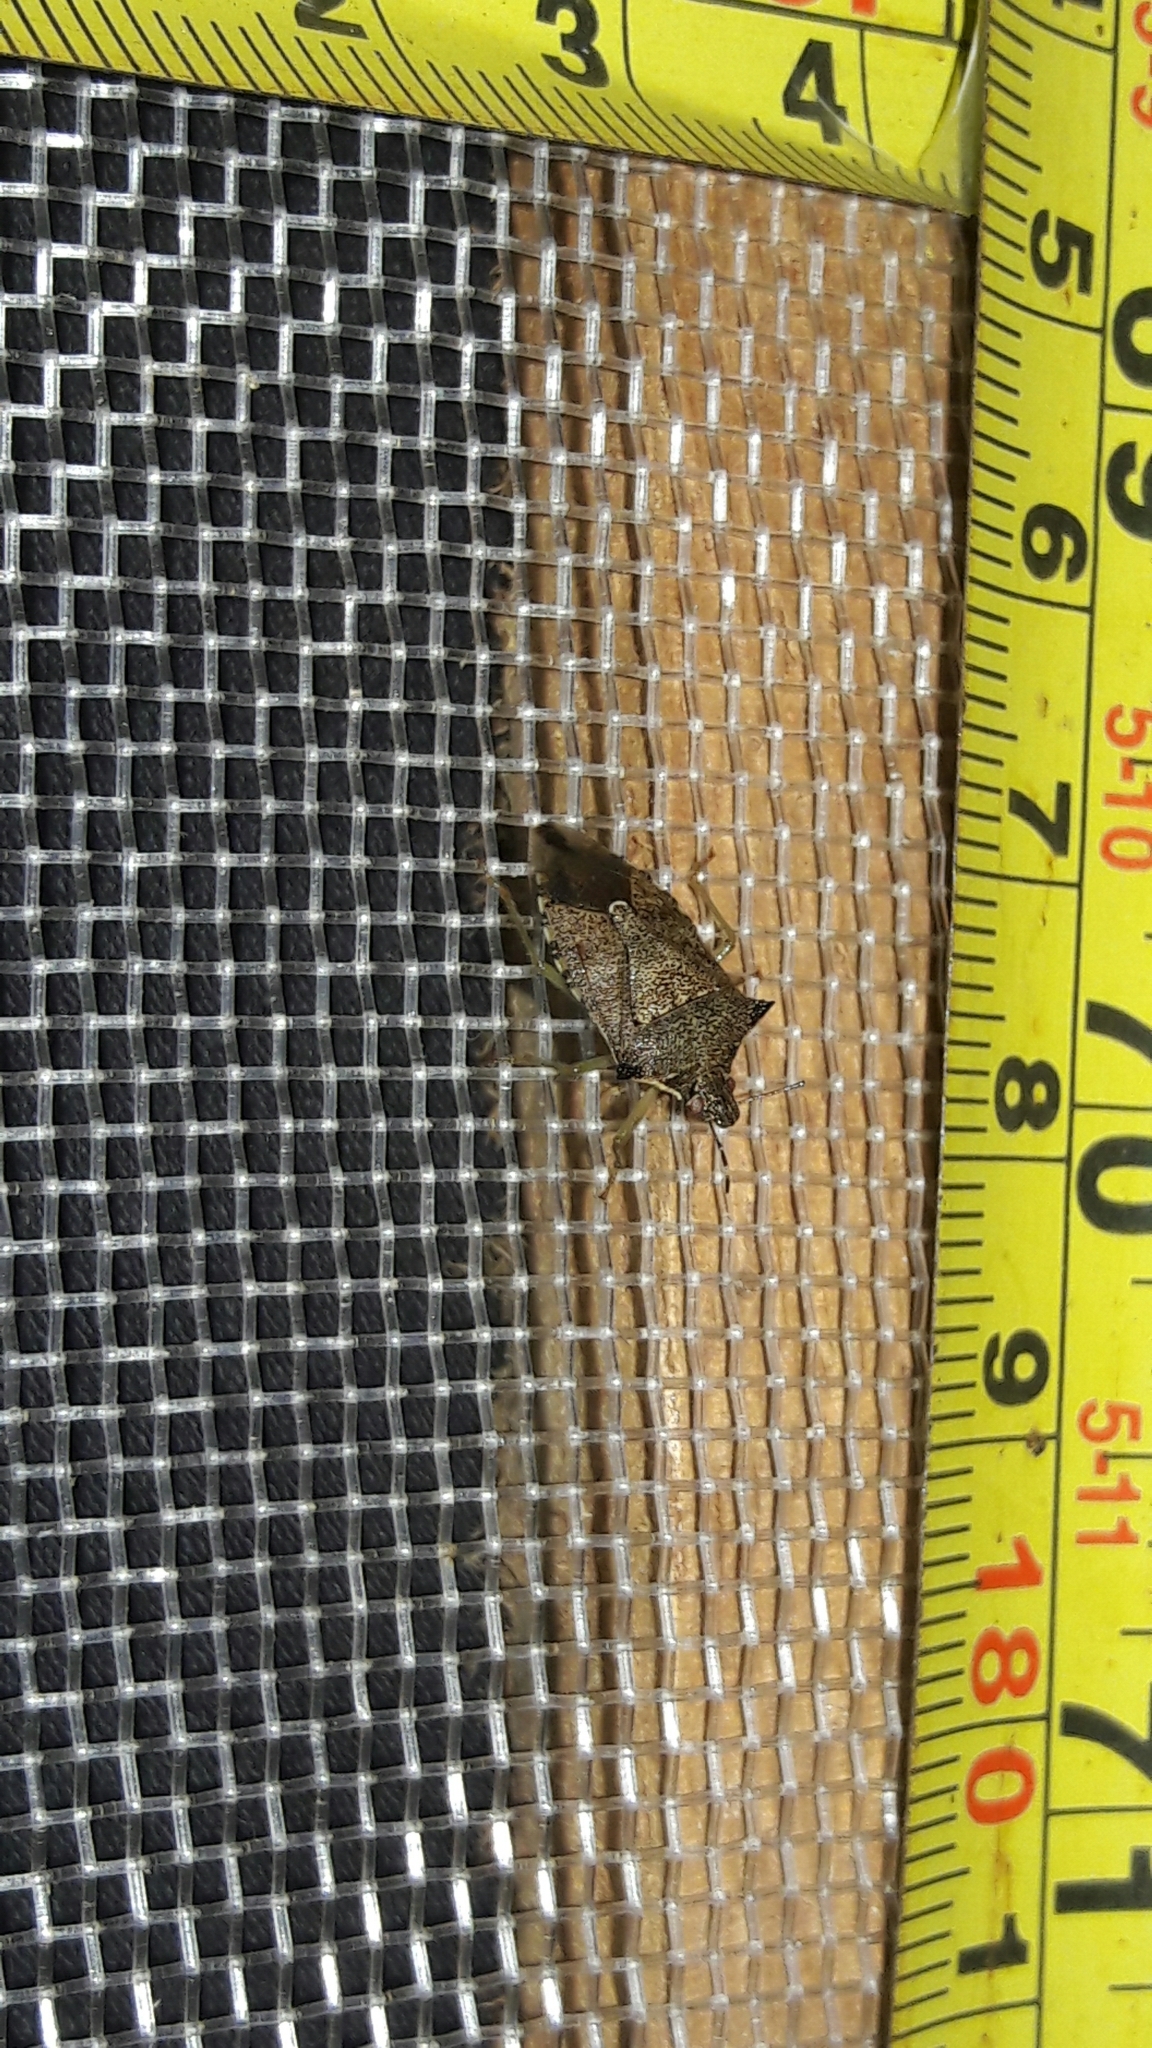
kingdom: Animalia
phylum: Arthropoda
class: Insecta
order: Hemiptera
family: Pentatomidae
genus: Podisus
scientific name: Podisus nigrispinus
